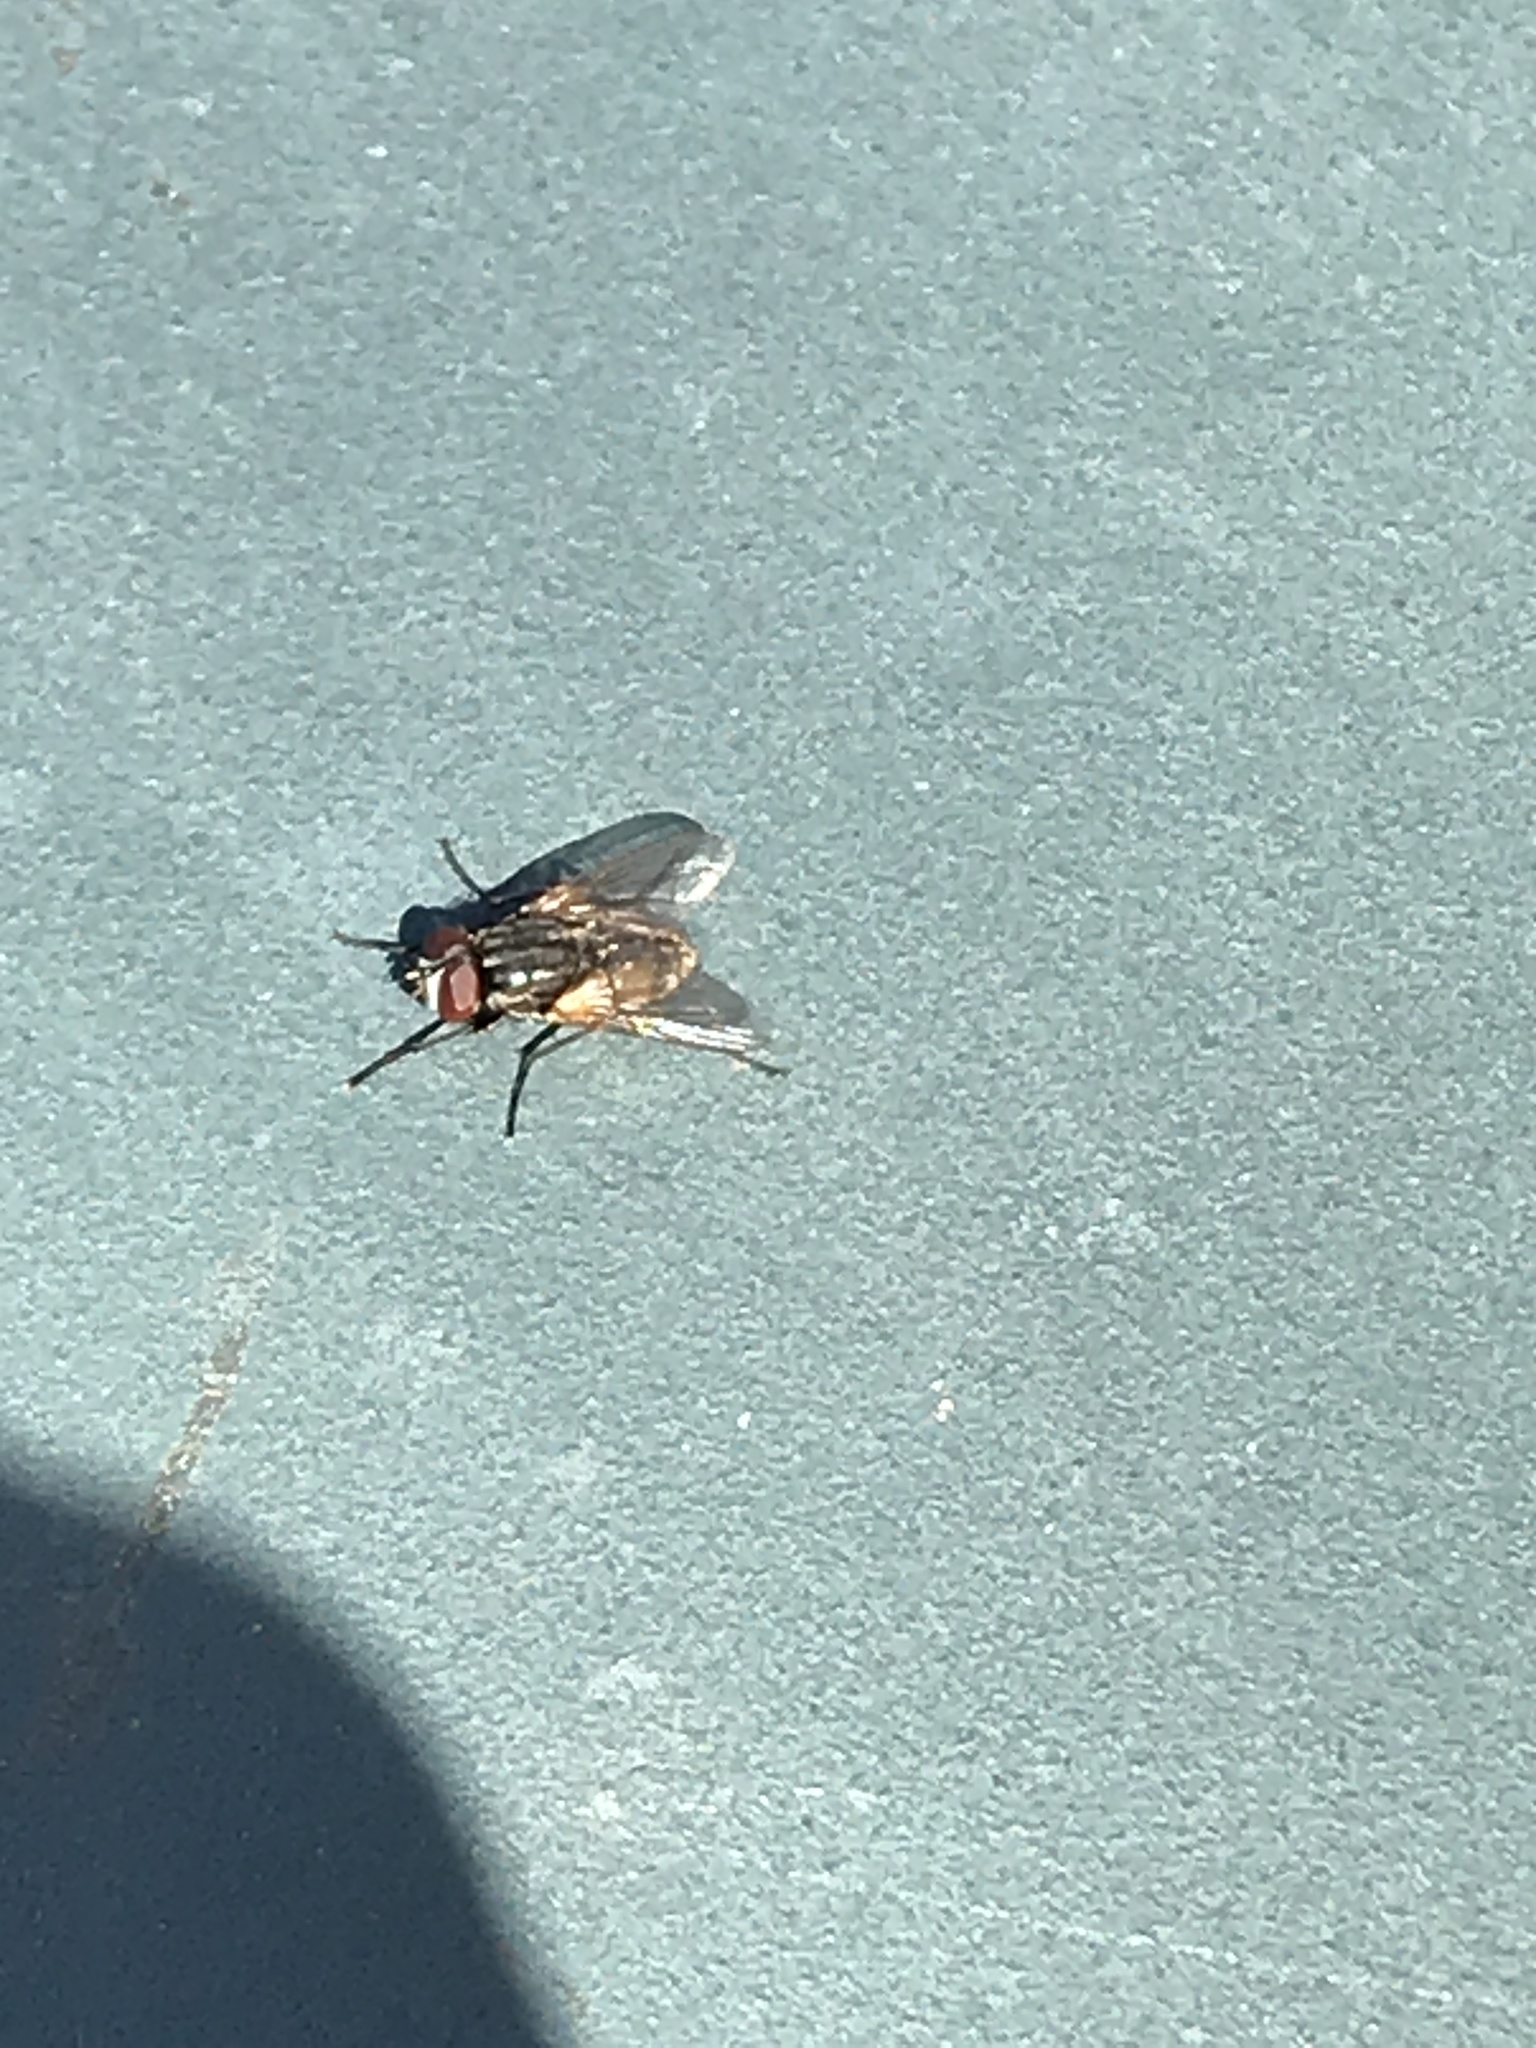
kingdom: Animalia
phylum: Arthropoda
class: Insecta
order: Diptera
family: Muscidae
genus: Musca
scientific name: Musca domestica
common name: House fly
